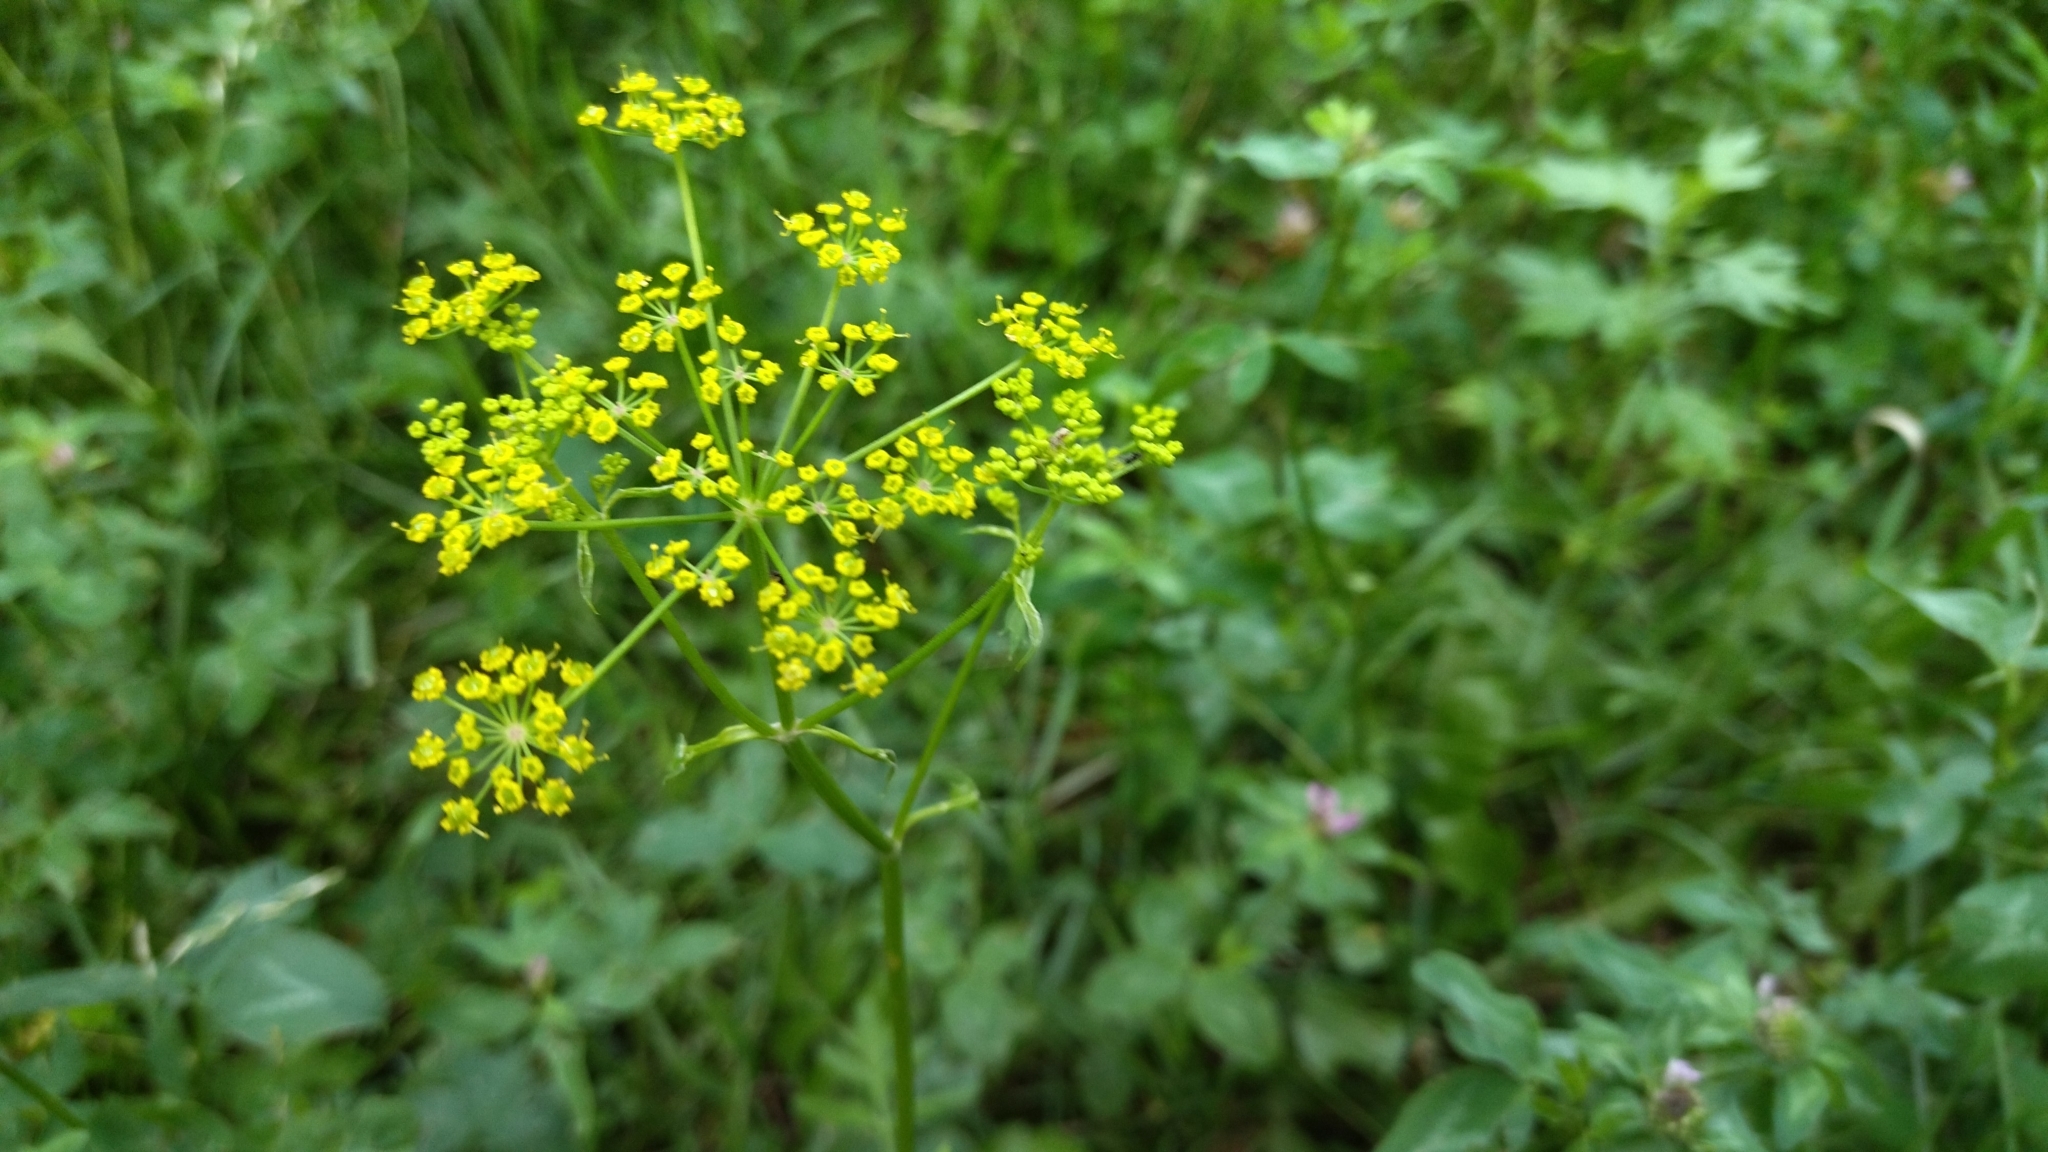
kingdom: Plantae
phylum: Tracheophyta
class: Magnoliopsida
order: Apiales
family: Apiaceae
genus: Pastinaca
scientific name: Pastinaca sativa
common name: Wild parsnip
